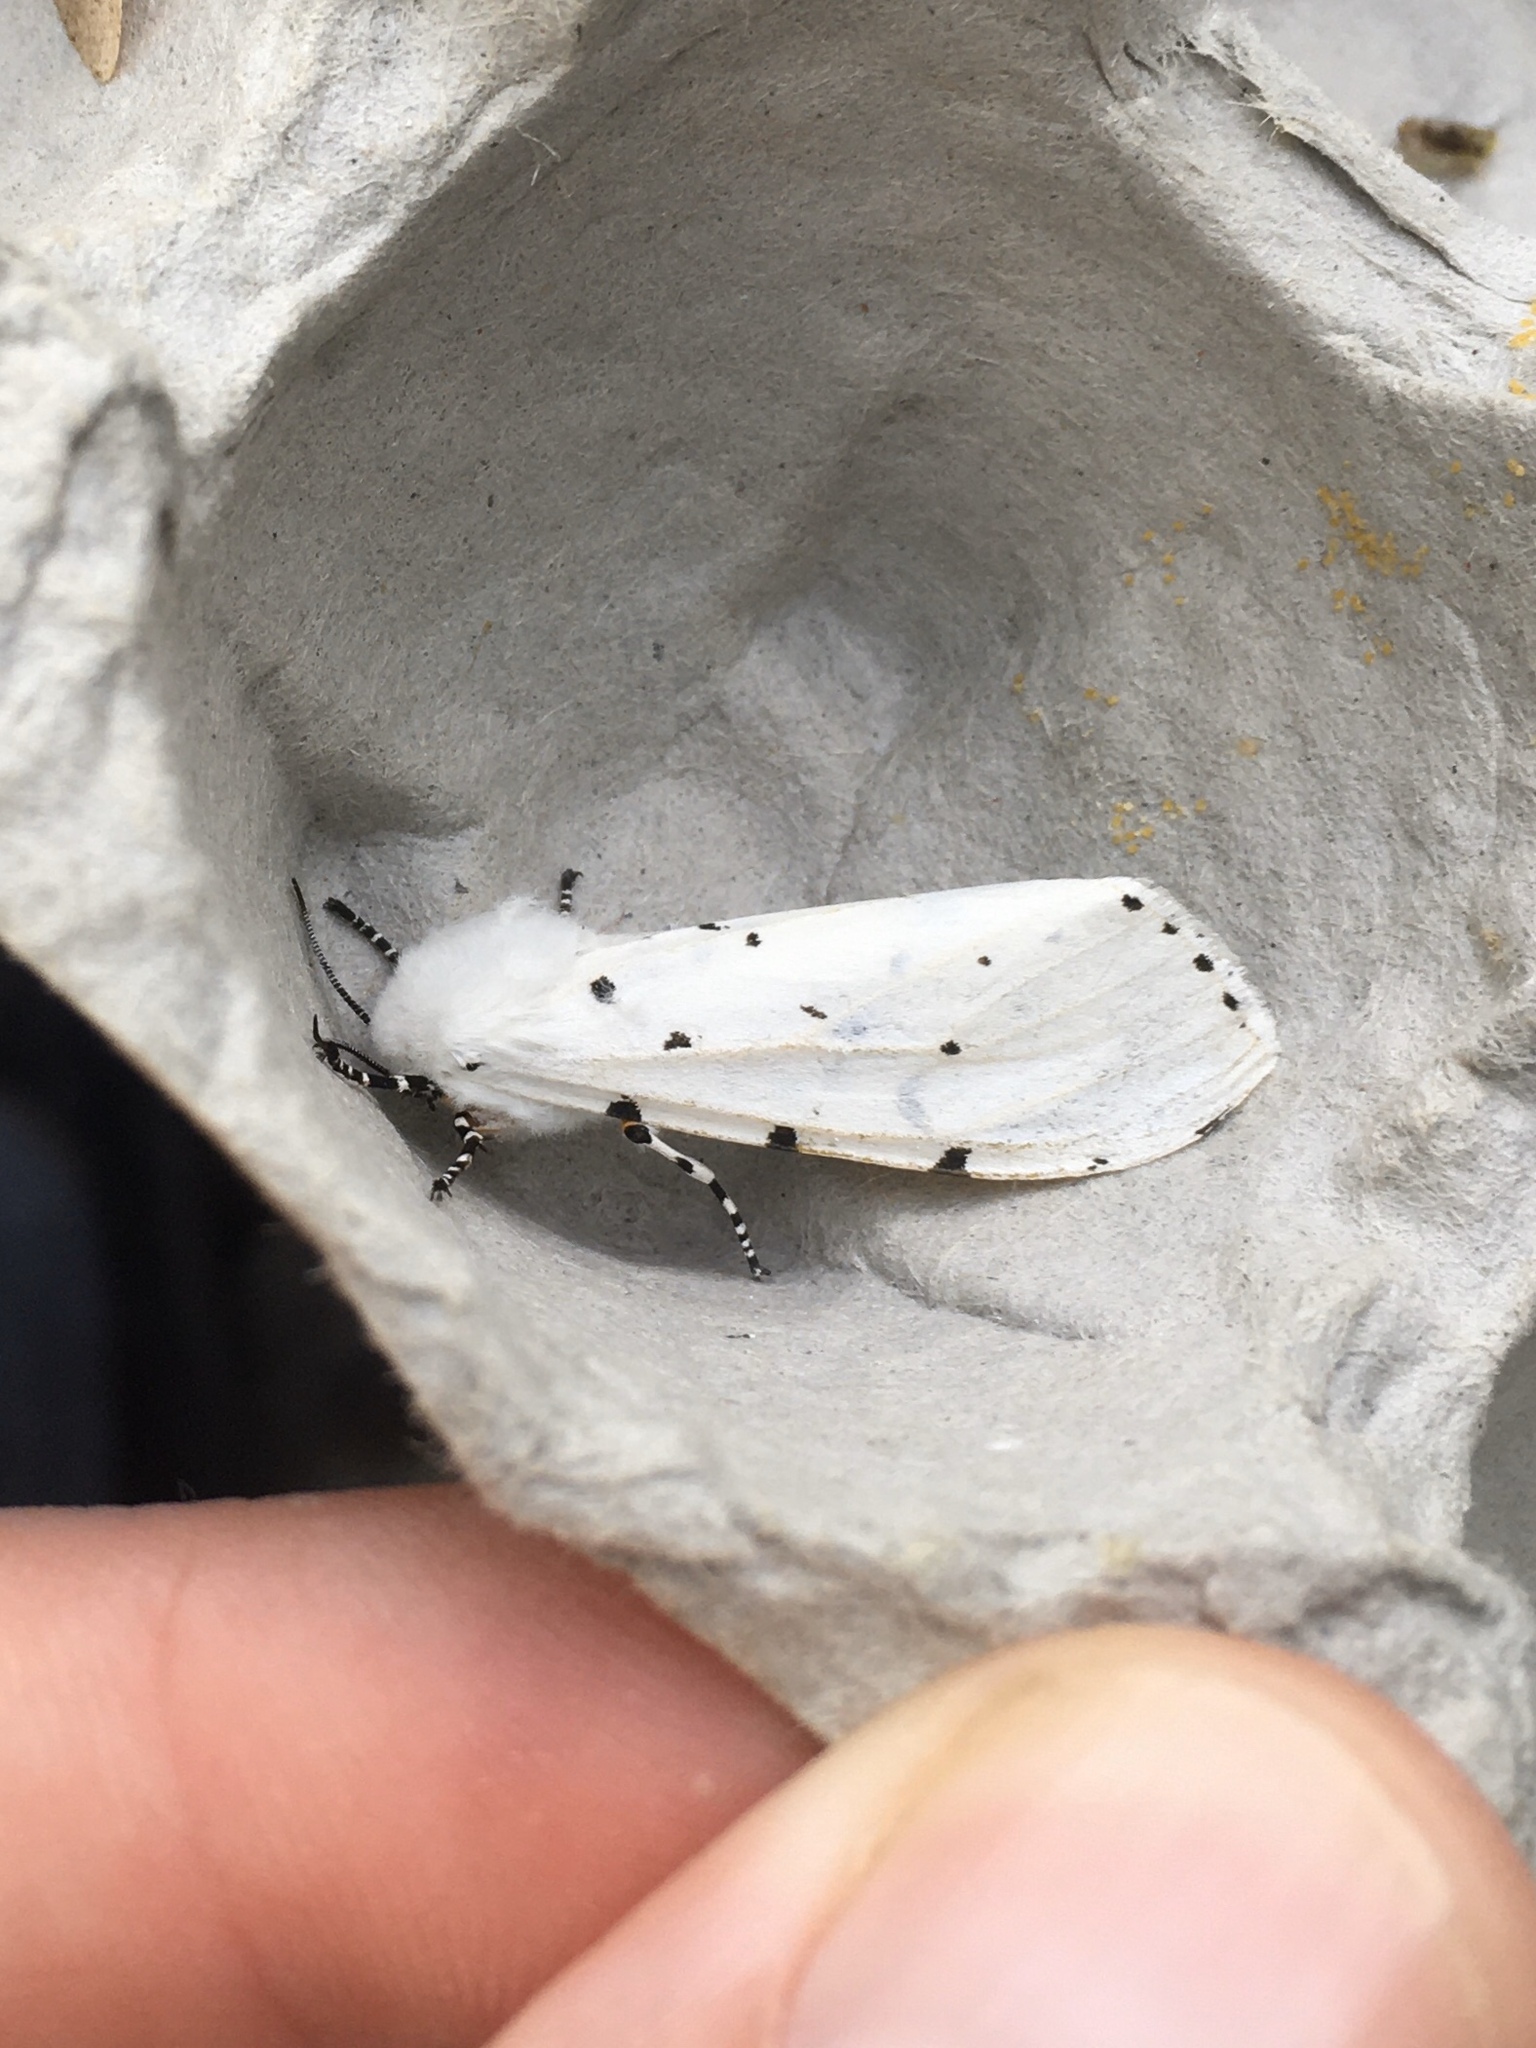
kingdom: Animalia
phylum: Arthropoda
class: Insecta
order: Lepidoptera
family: Erebidae
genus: Estigmene
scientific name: Estigmene acrea
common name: Salt marsh moth
